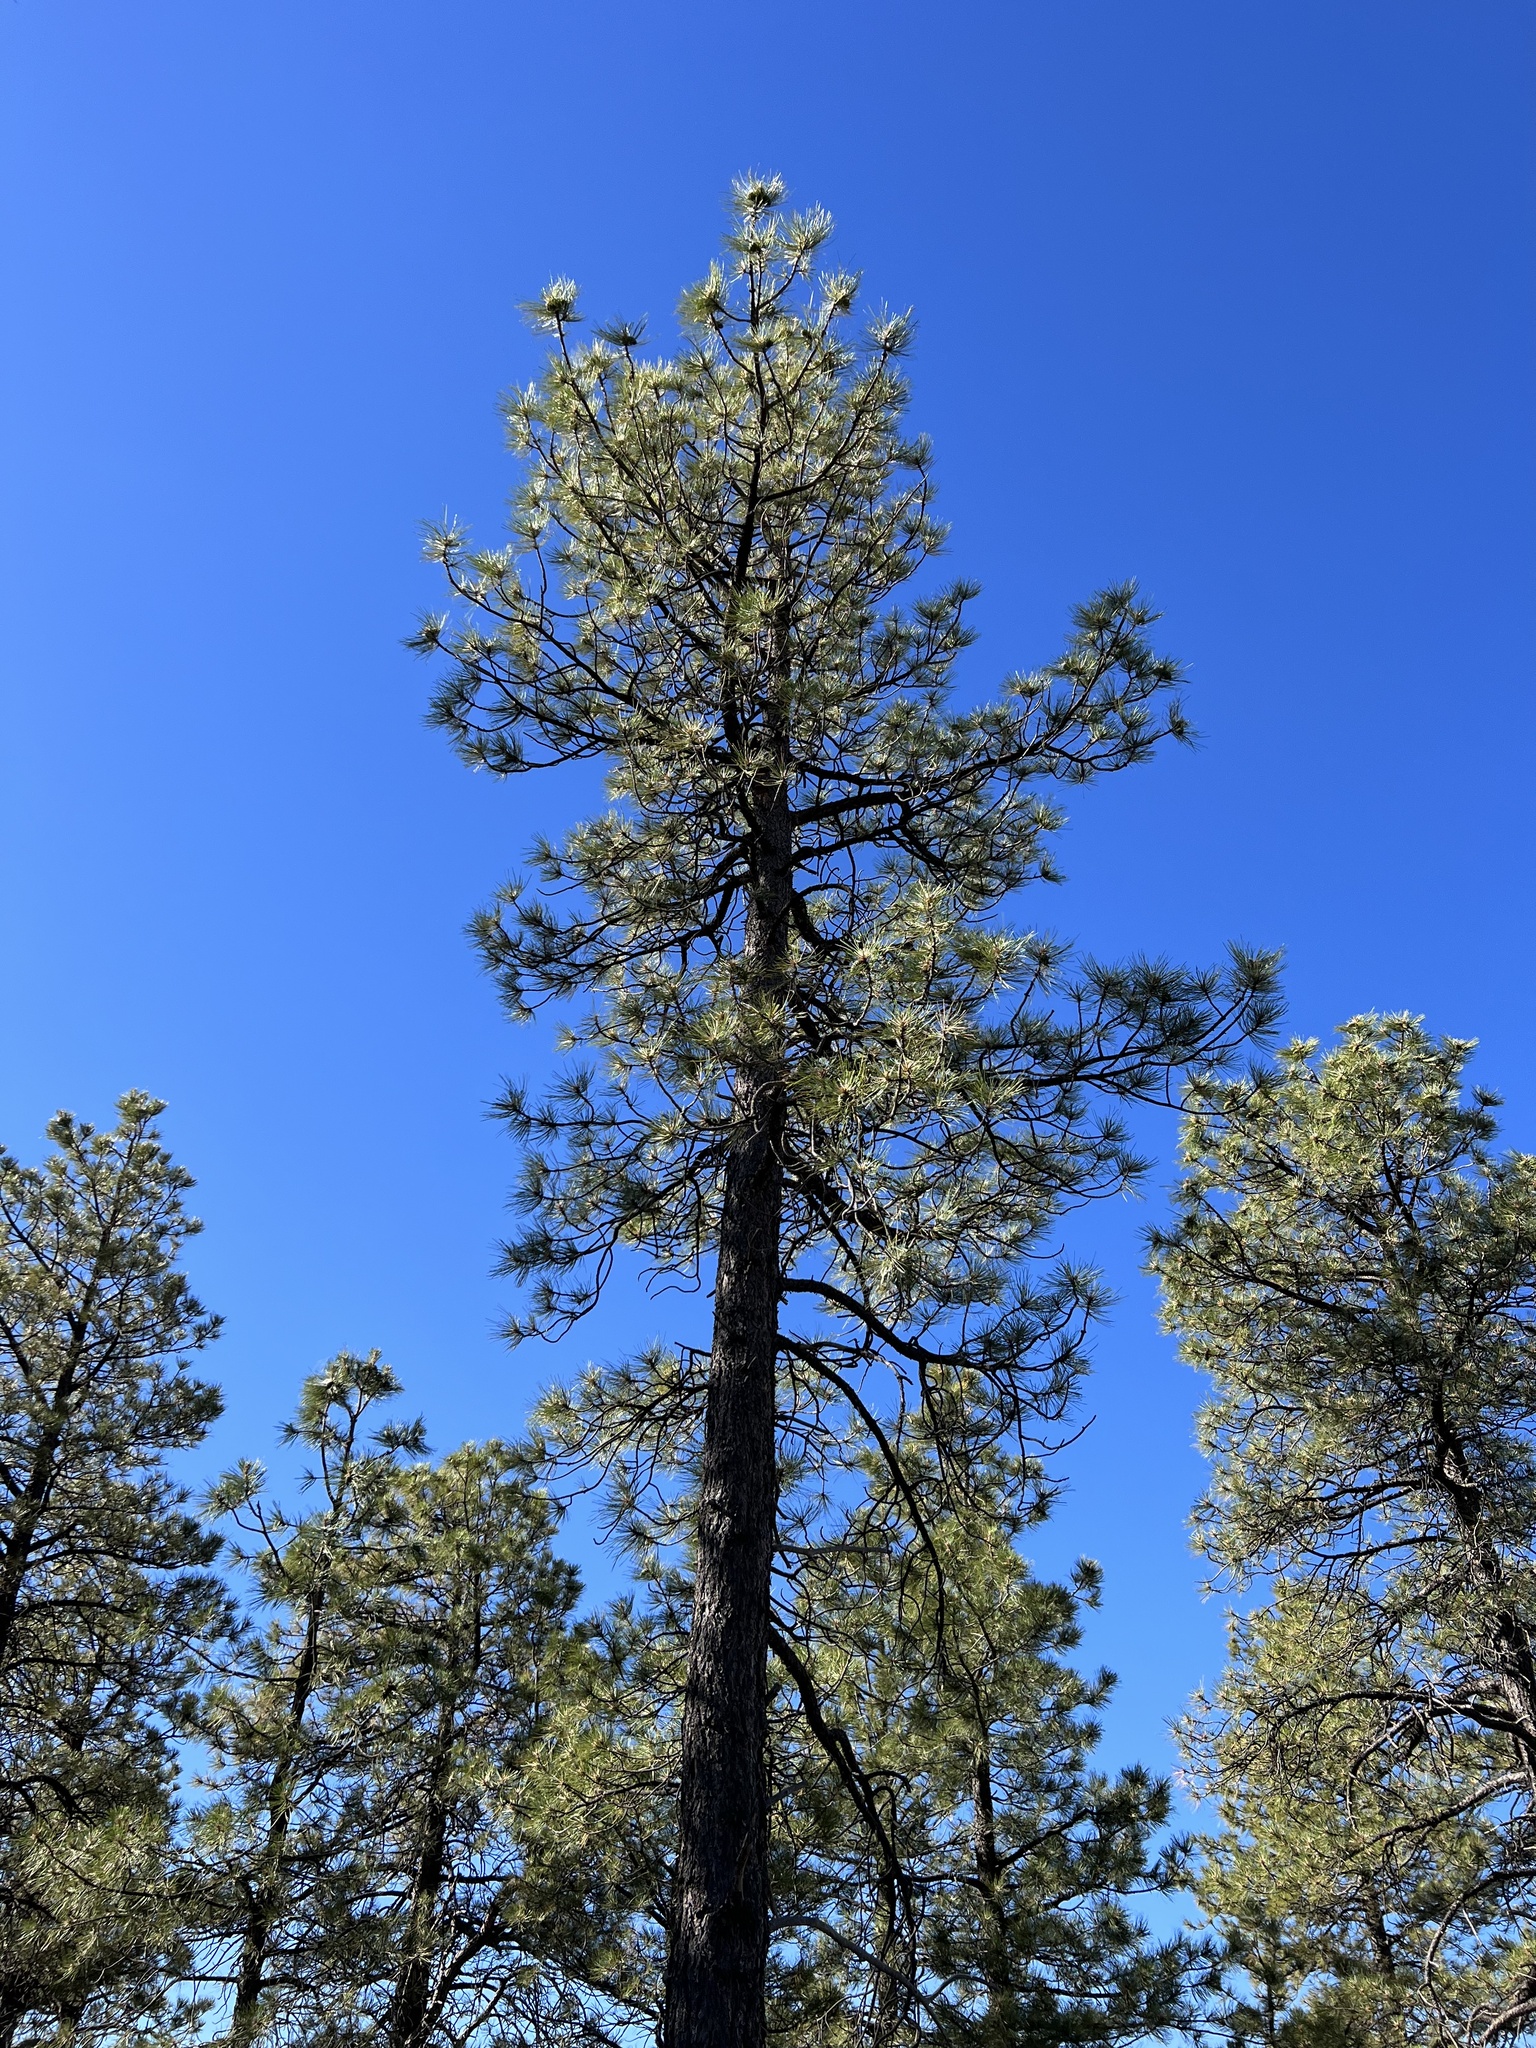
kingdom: Plantae
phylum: Tracheophyta
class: Pinopsida
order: Pinales
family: Pinaceae
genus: Pinus
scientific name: Pinus ponderosa
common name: Western yellow-pine
